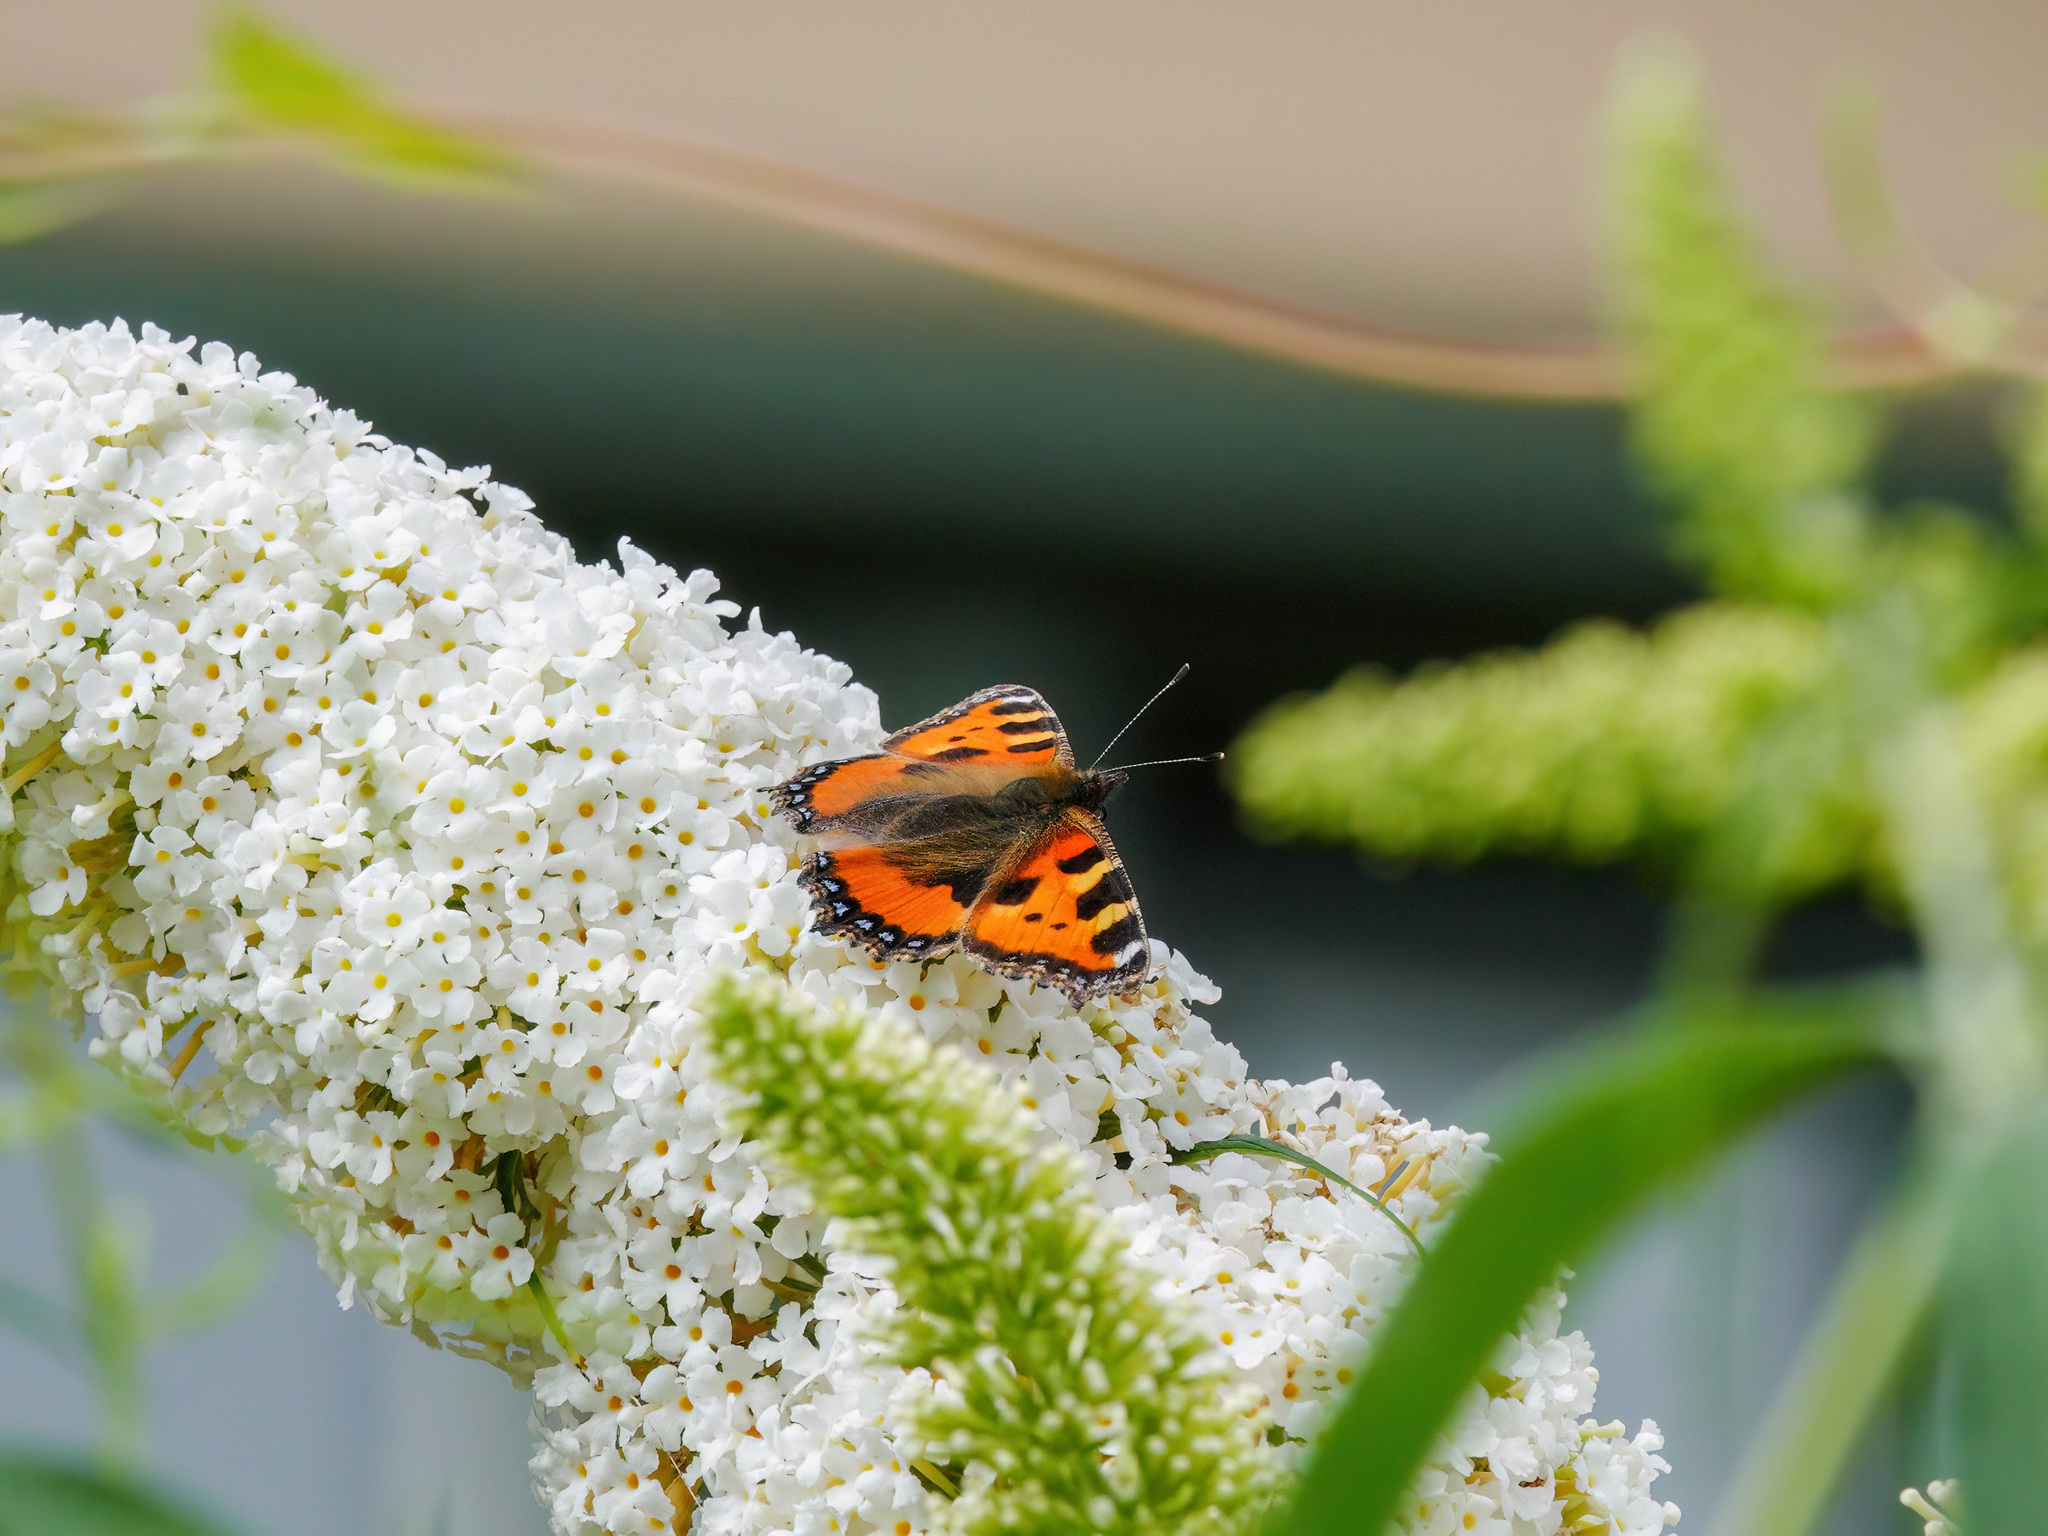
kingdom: Animalia
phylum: Arthropoda
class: Insecta
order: Lepidoptera
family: Nymphalidae
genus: Aglais
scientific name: Aglais urticae
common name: Small tortoiseshell
